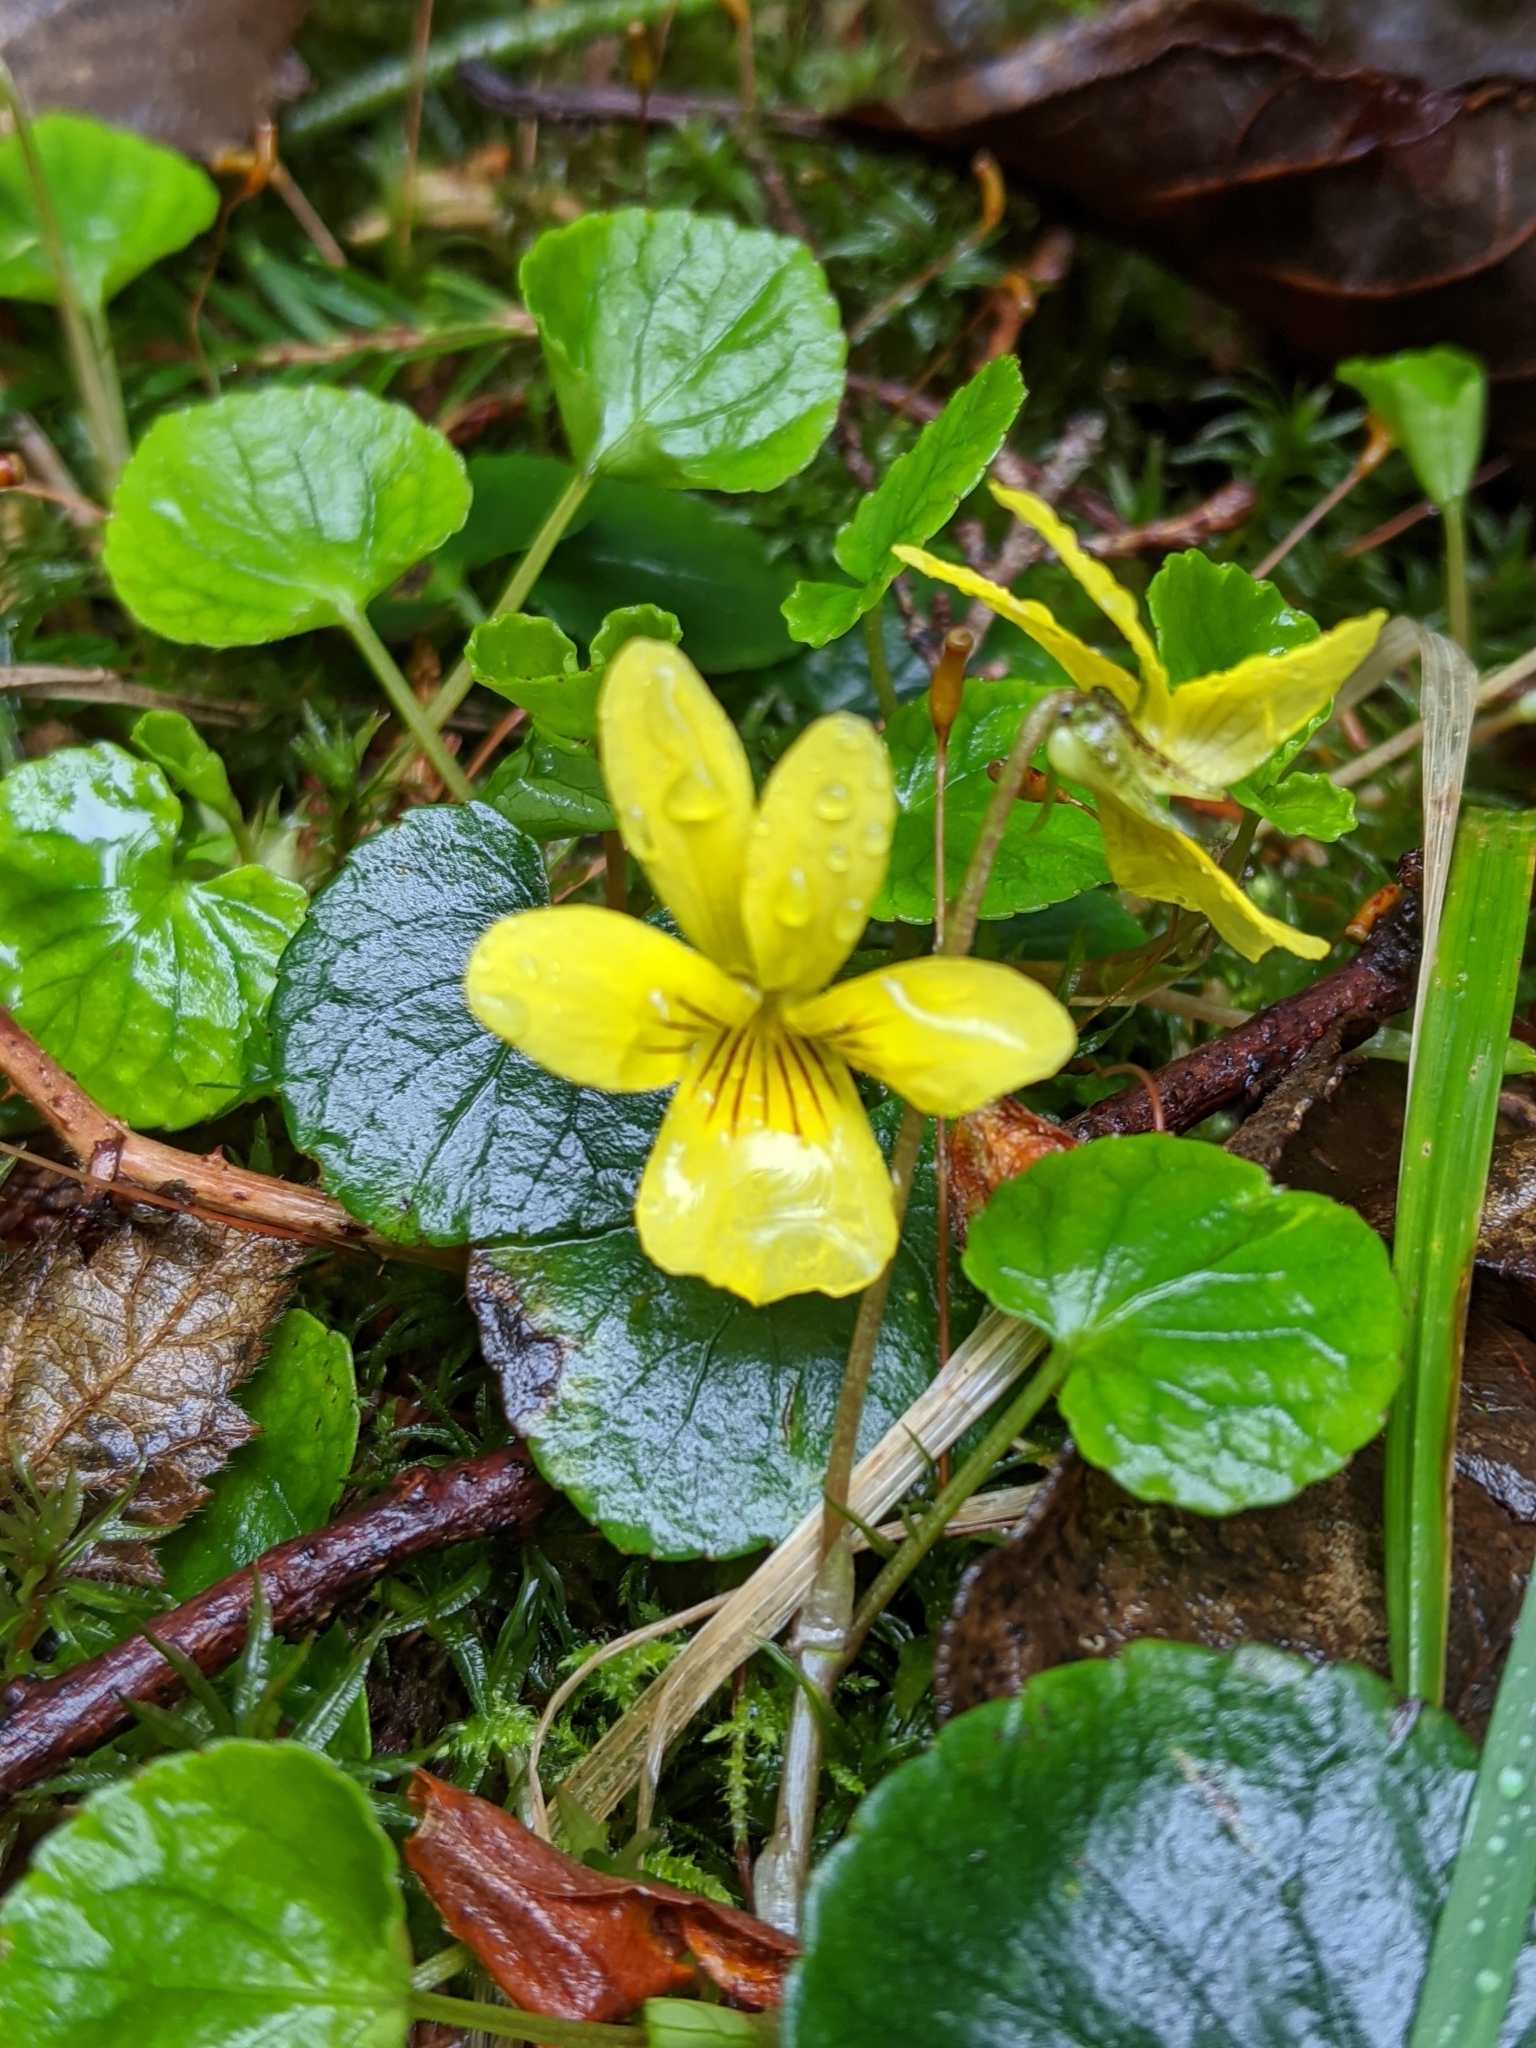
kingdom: Plantae
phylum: Tracheophyta
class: Magnoliopsida
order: Malpighiales
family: Violaceae
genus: Viola
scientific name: Viola sempervirens
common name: Evergreen violet
